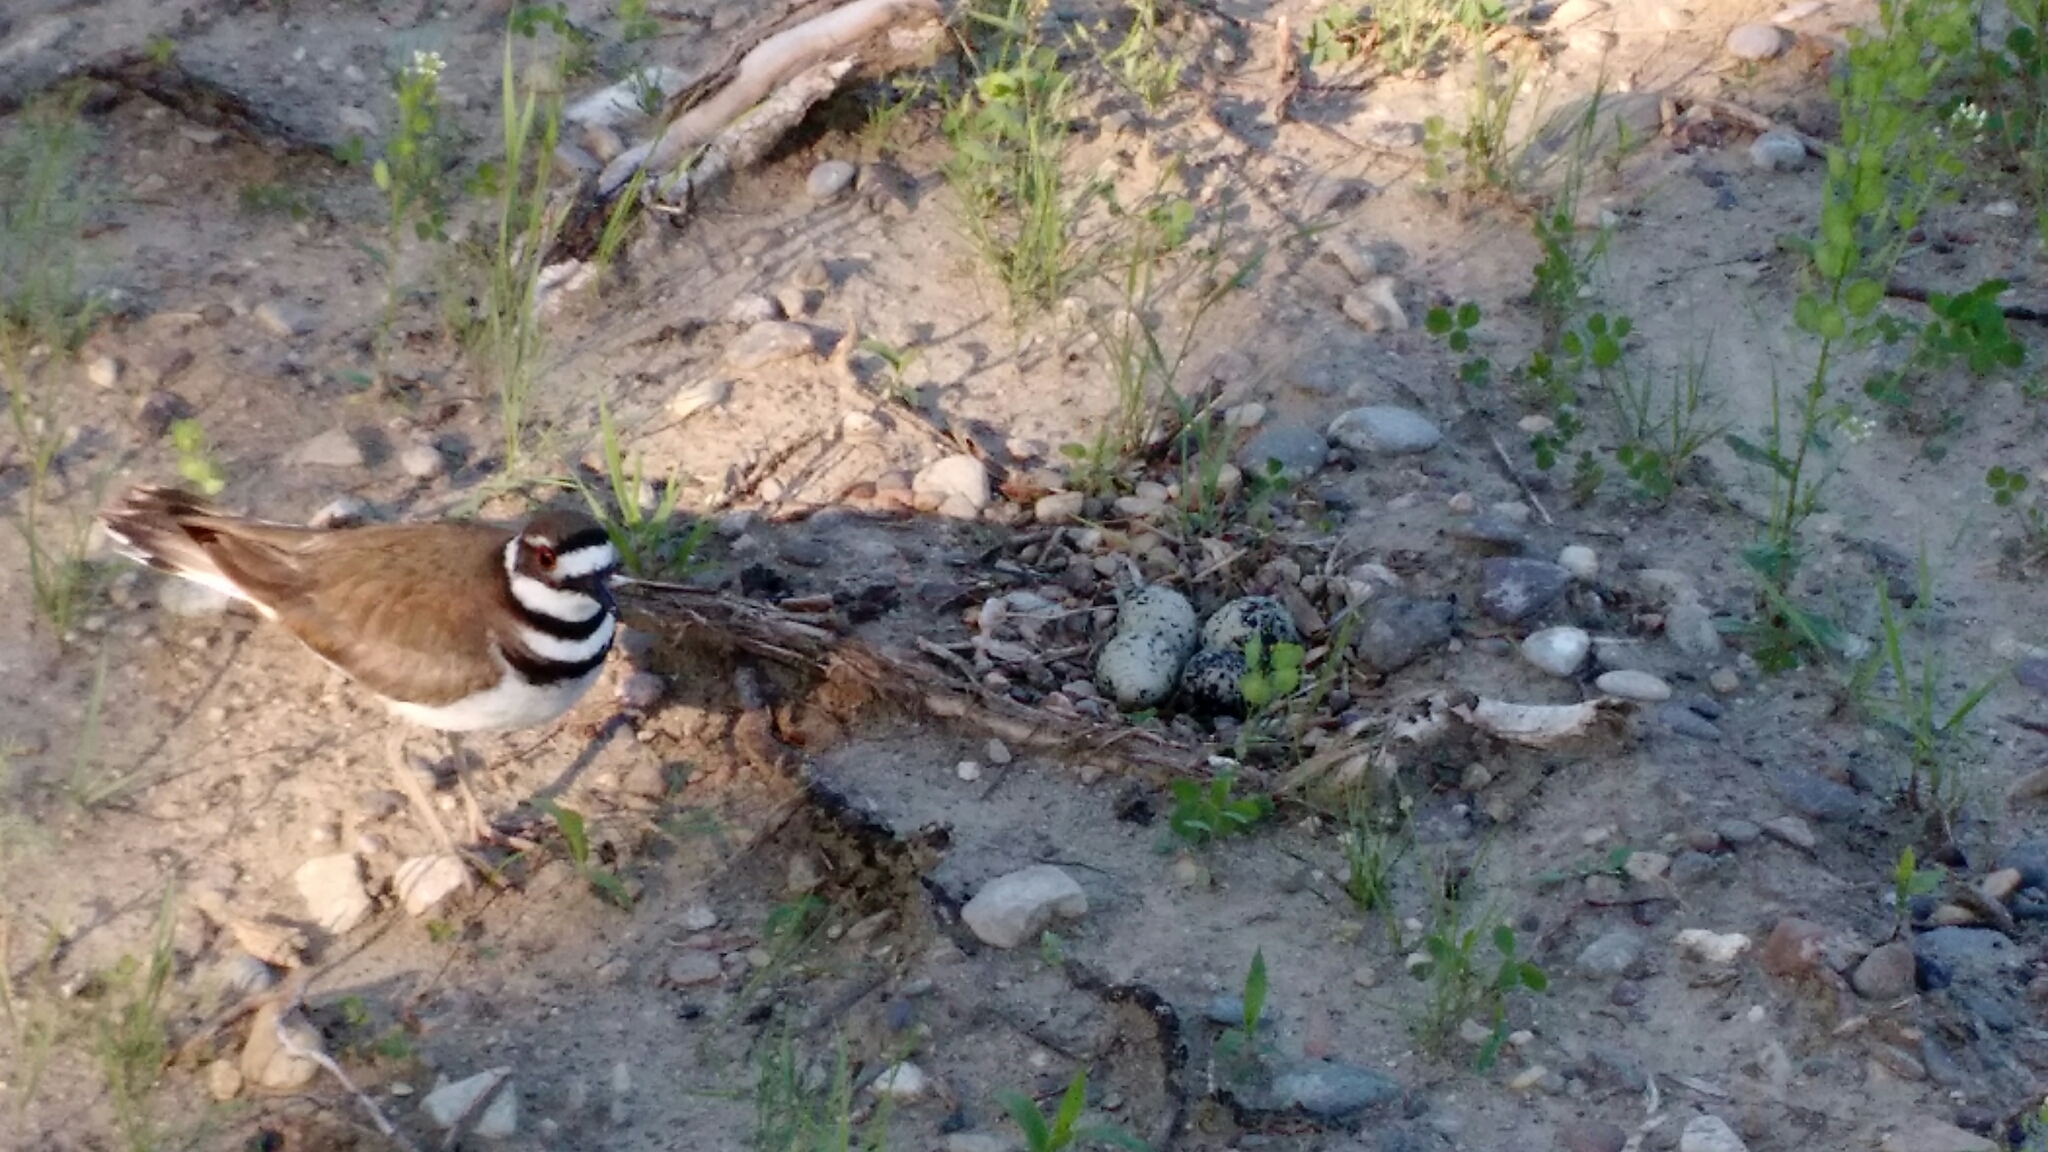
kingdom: Animalia
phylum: Chordata
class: Aves
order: Charadriiformes
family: Charadriidae
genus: Charadrius
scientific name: Charadrius vociferus
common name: Killdeer
